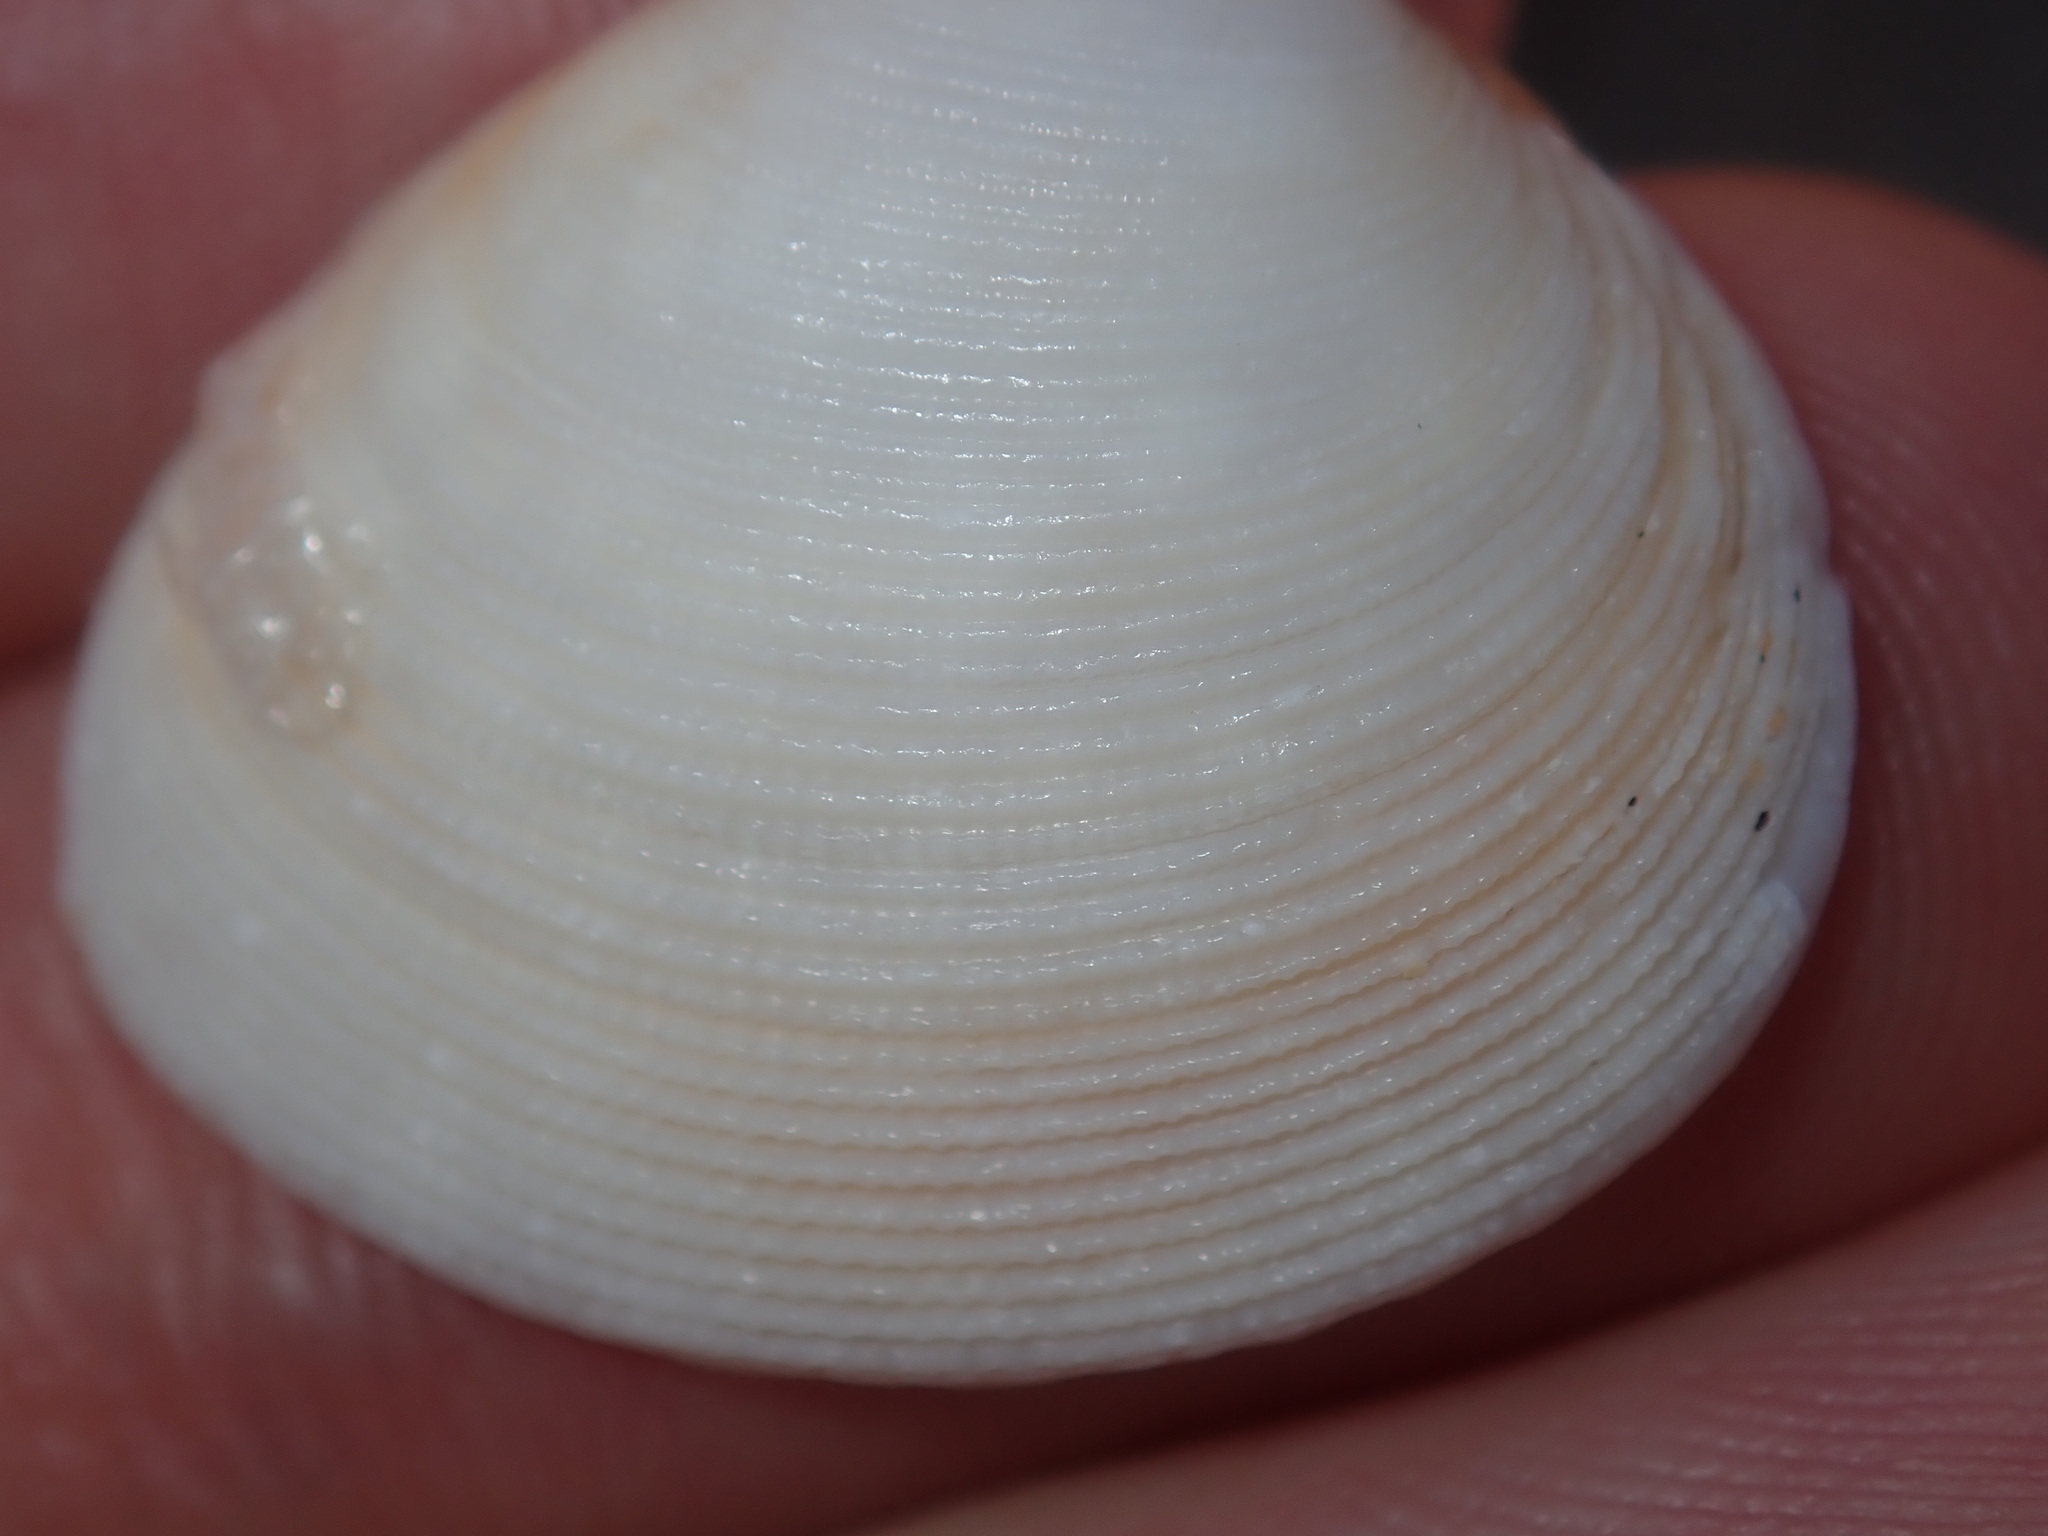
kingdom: Animalia
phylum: Mollusca
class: Bivalvia
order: Venerida
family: Veneridae
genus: Tawera
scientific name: Tawera lagopus
